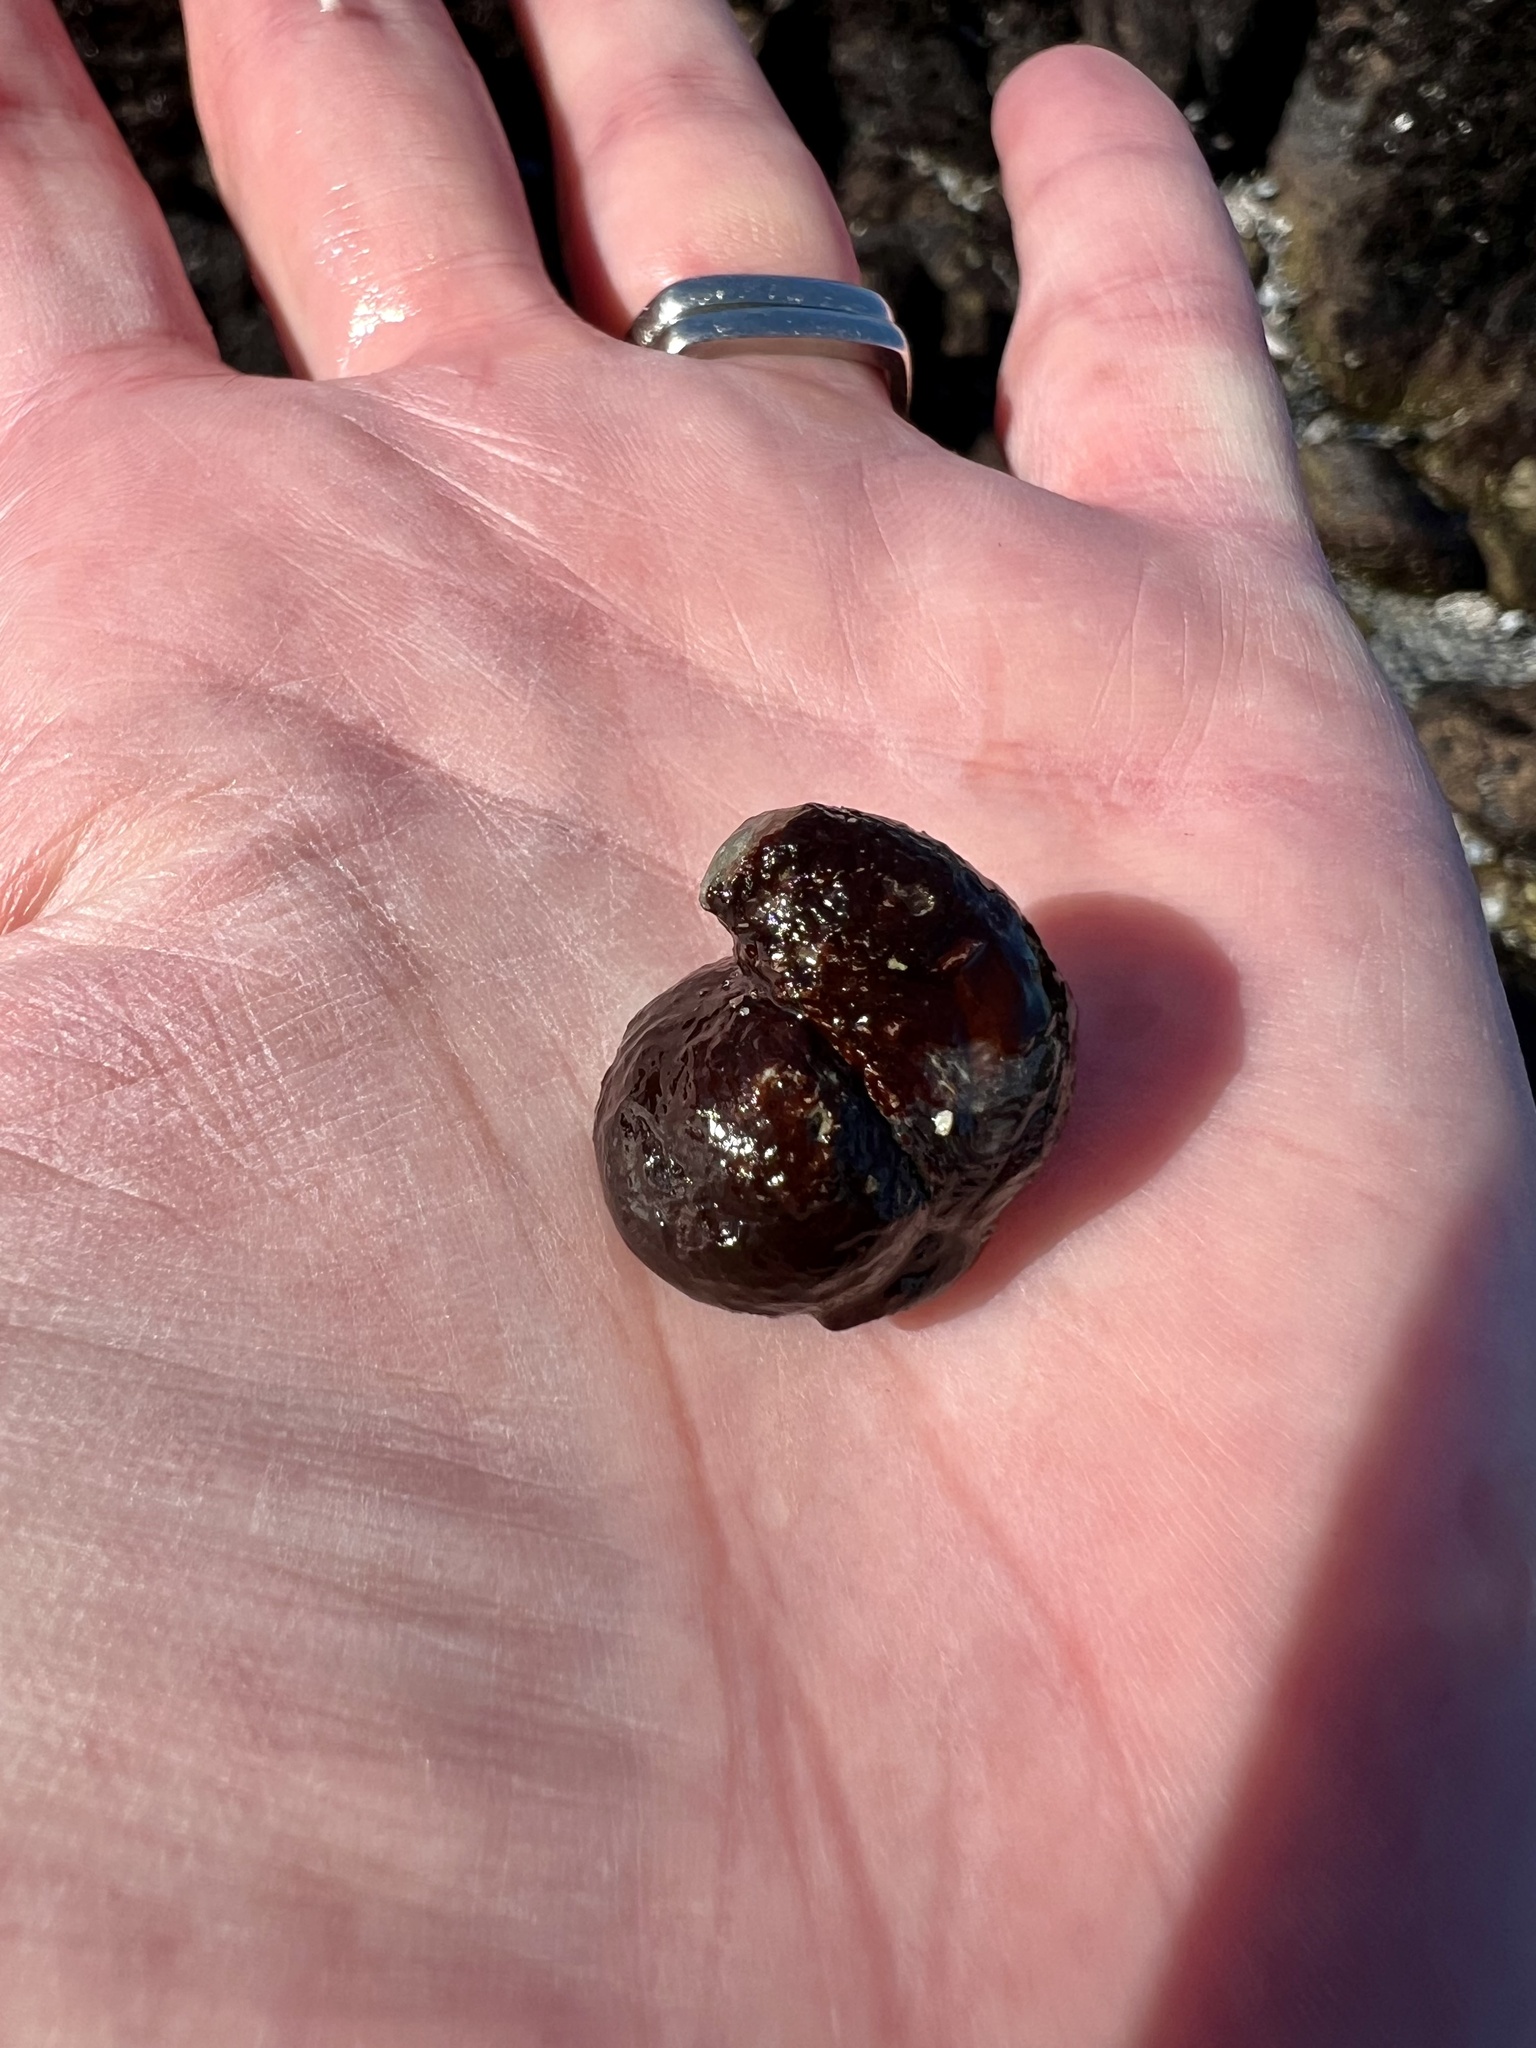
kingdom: Animalia
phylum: Mollusca
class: Gastropoda
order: Littorinimorpha
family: Calyptraeidae
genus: Crepidula
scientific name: Crepidula adunca
